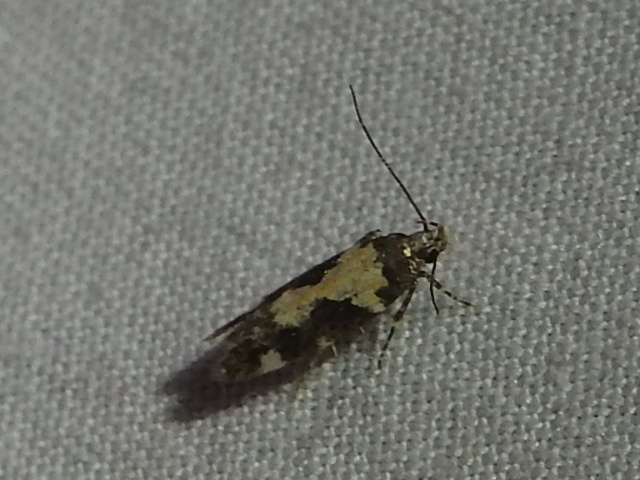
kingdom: Animalia
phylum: Arthropoda
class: Insecta
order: Lepidoptera
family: Gelechiidae
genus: Stegasta
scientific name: Stegasta bosqueella
